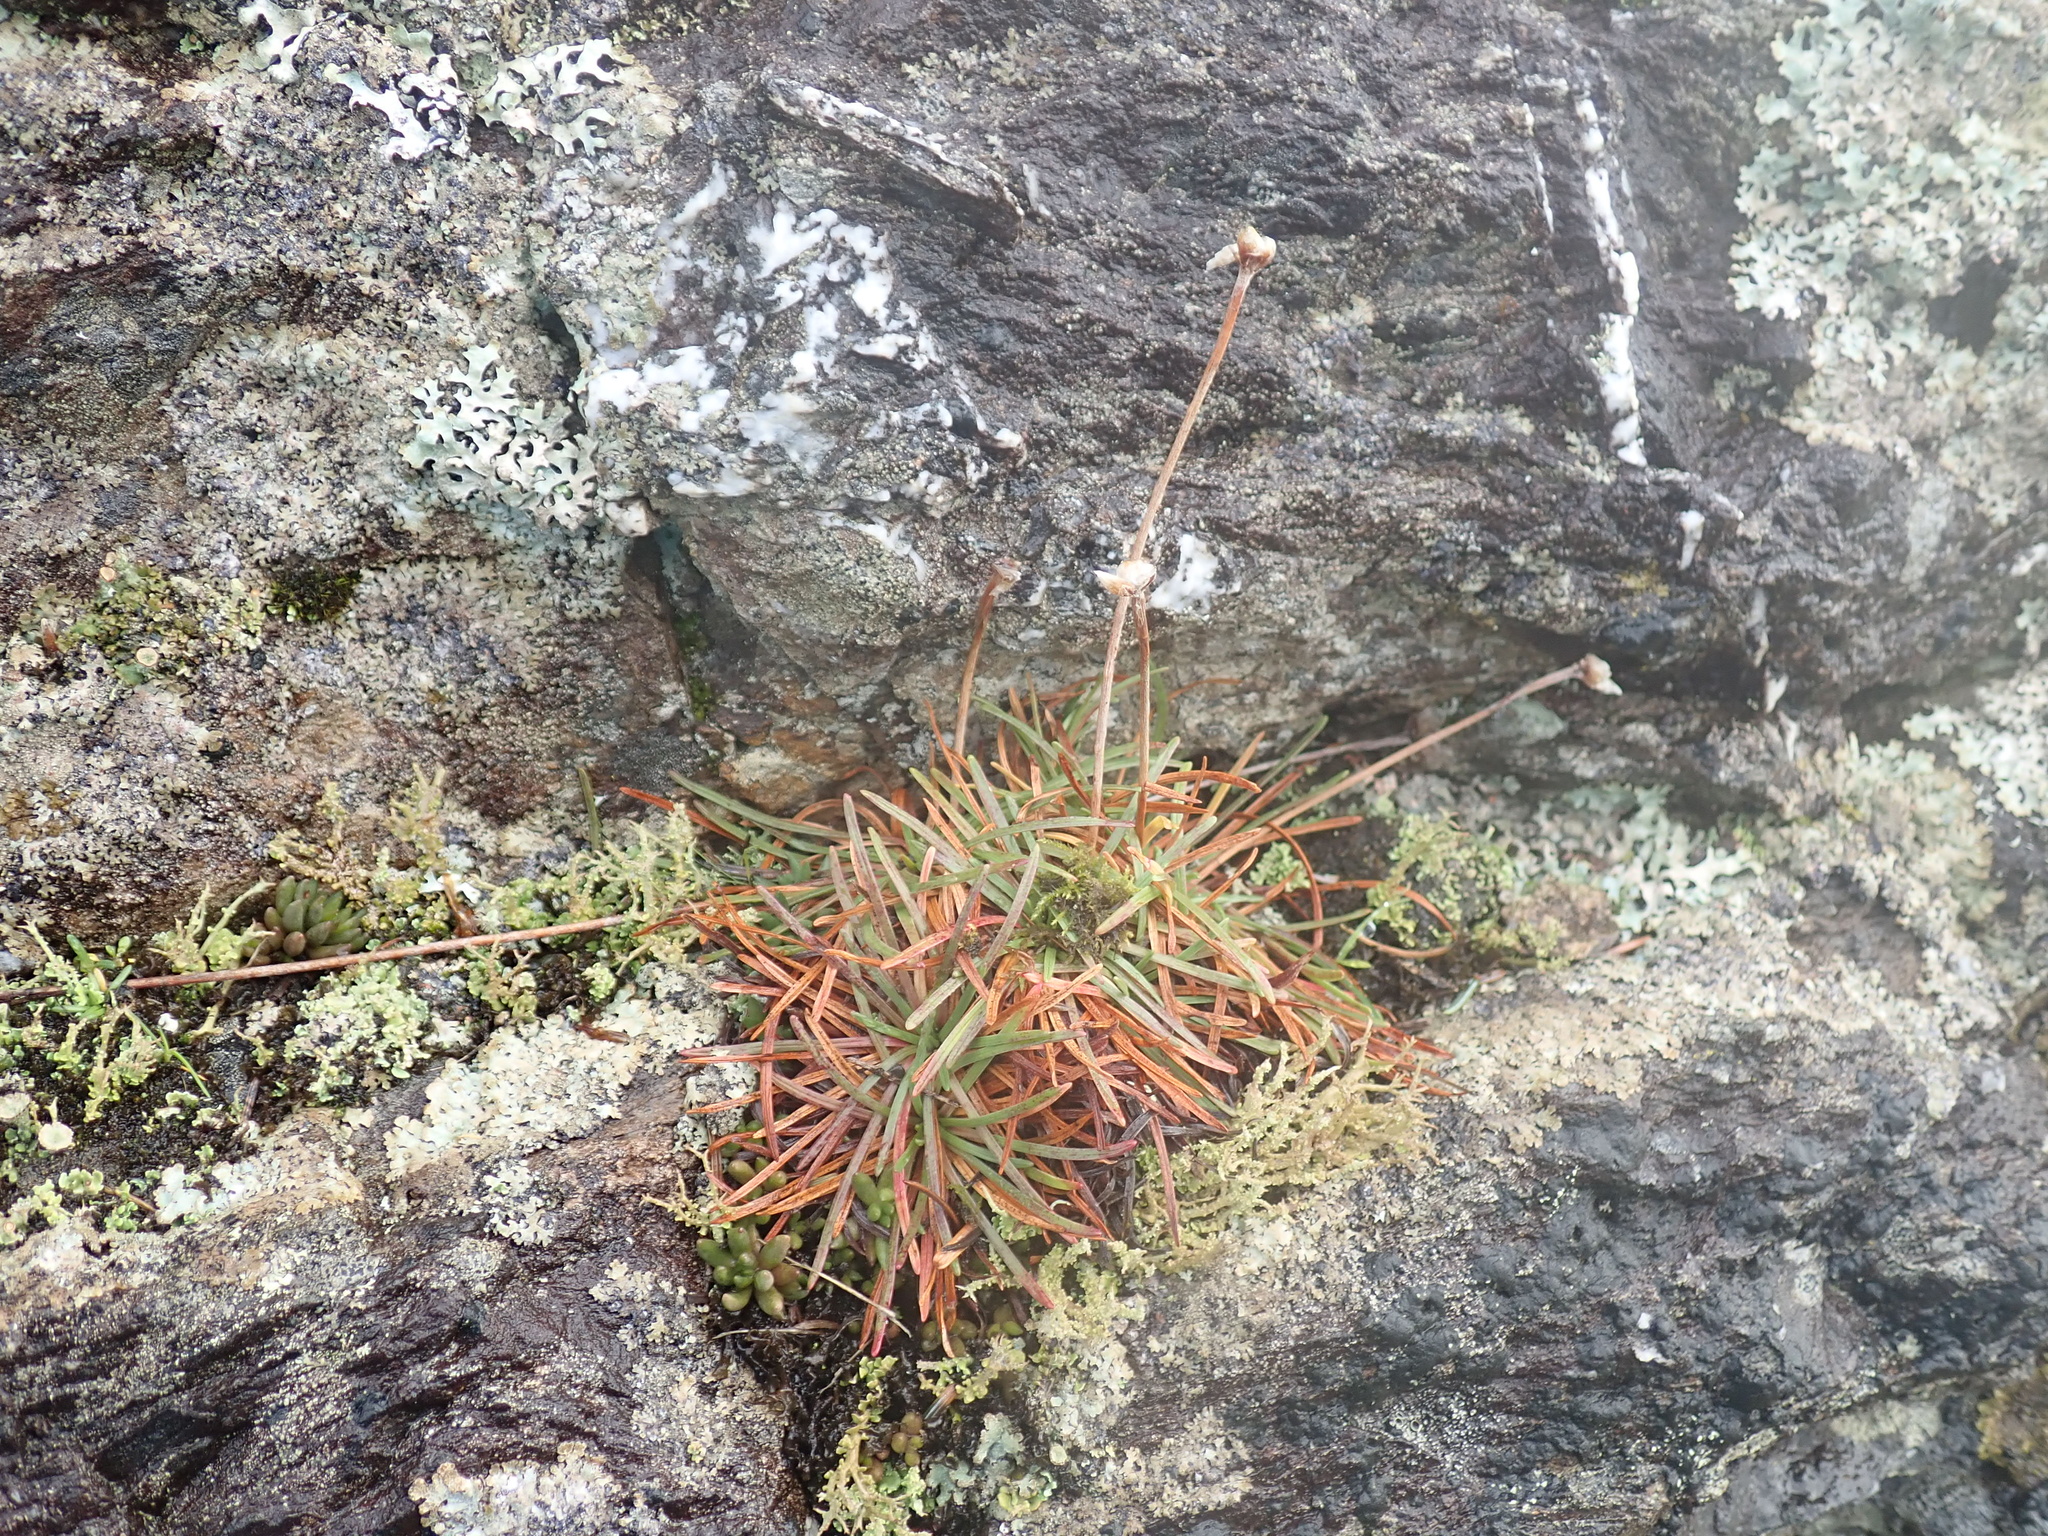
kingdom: Plantae
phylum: Tracheophyta
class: Magnoliopsida
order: Caryophyllales
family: Plumbaginaceae
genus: Armeria
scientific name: Armeria maritima
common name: Thrift
